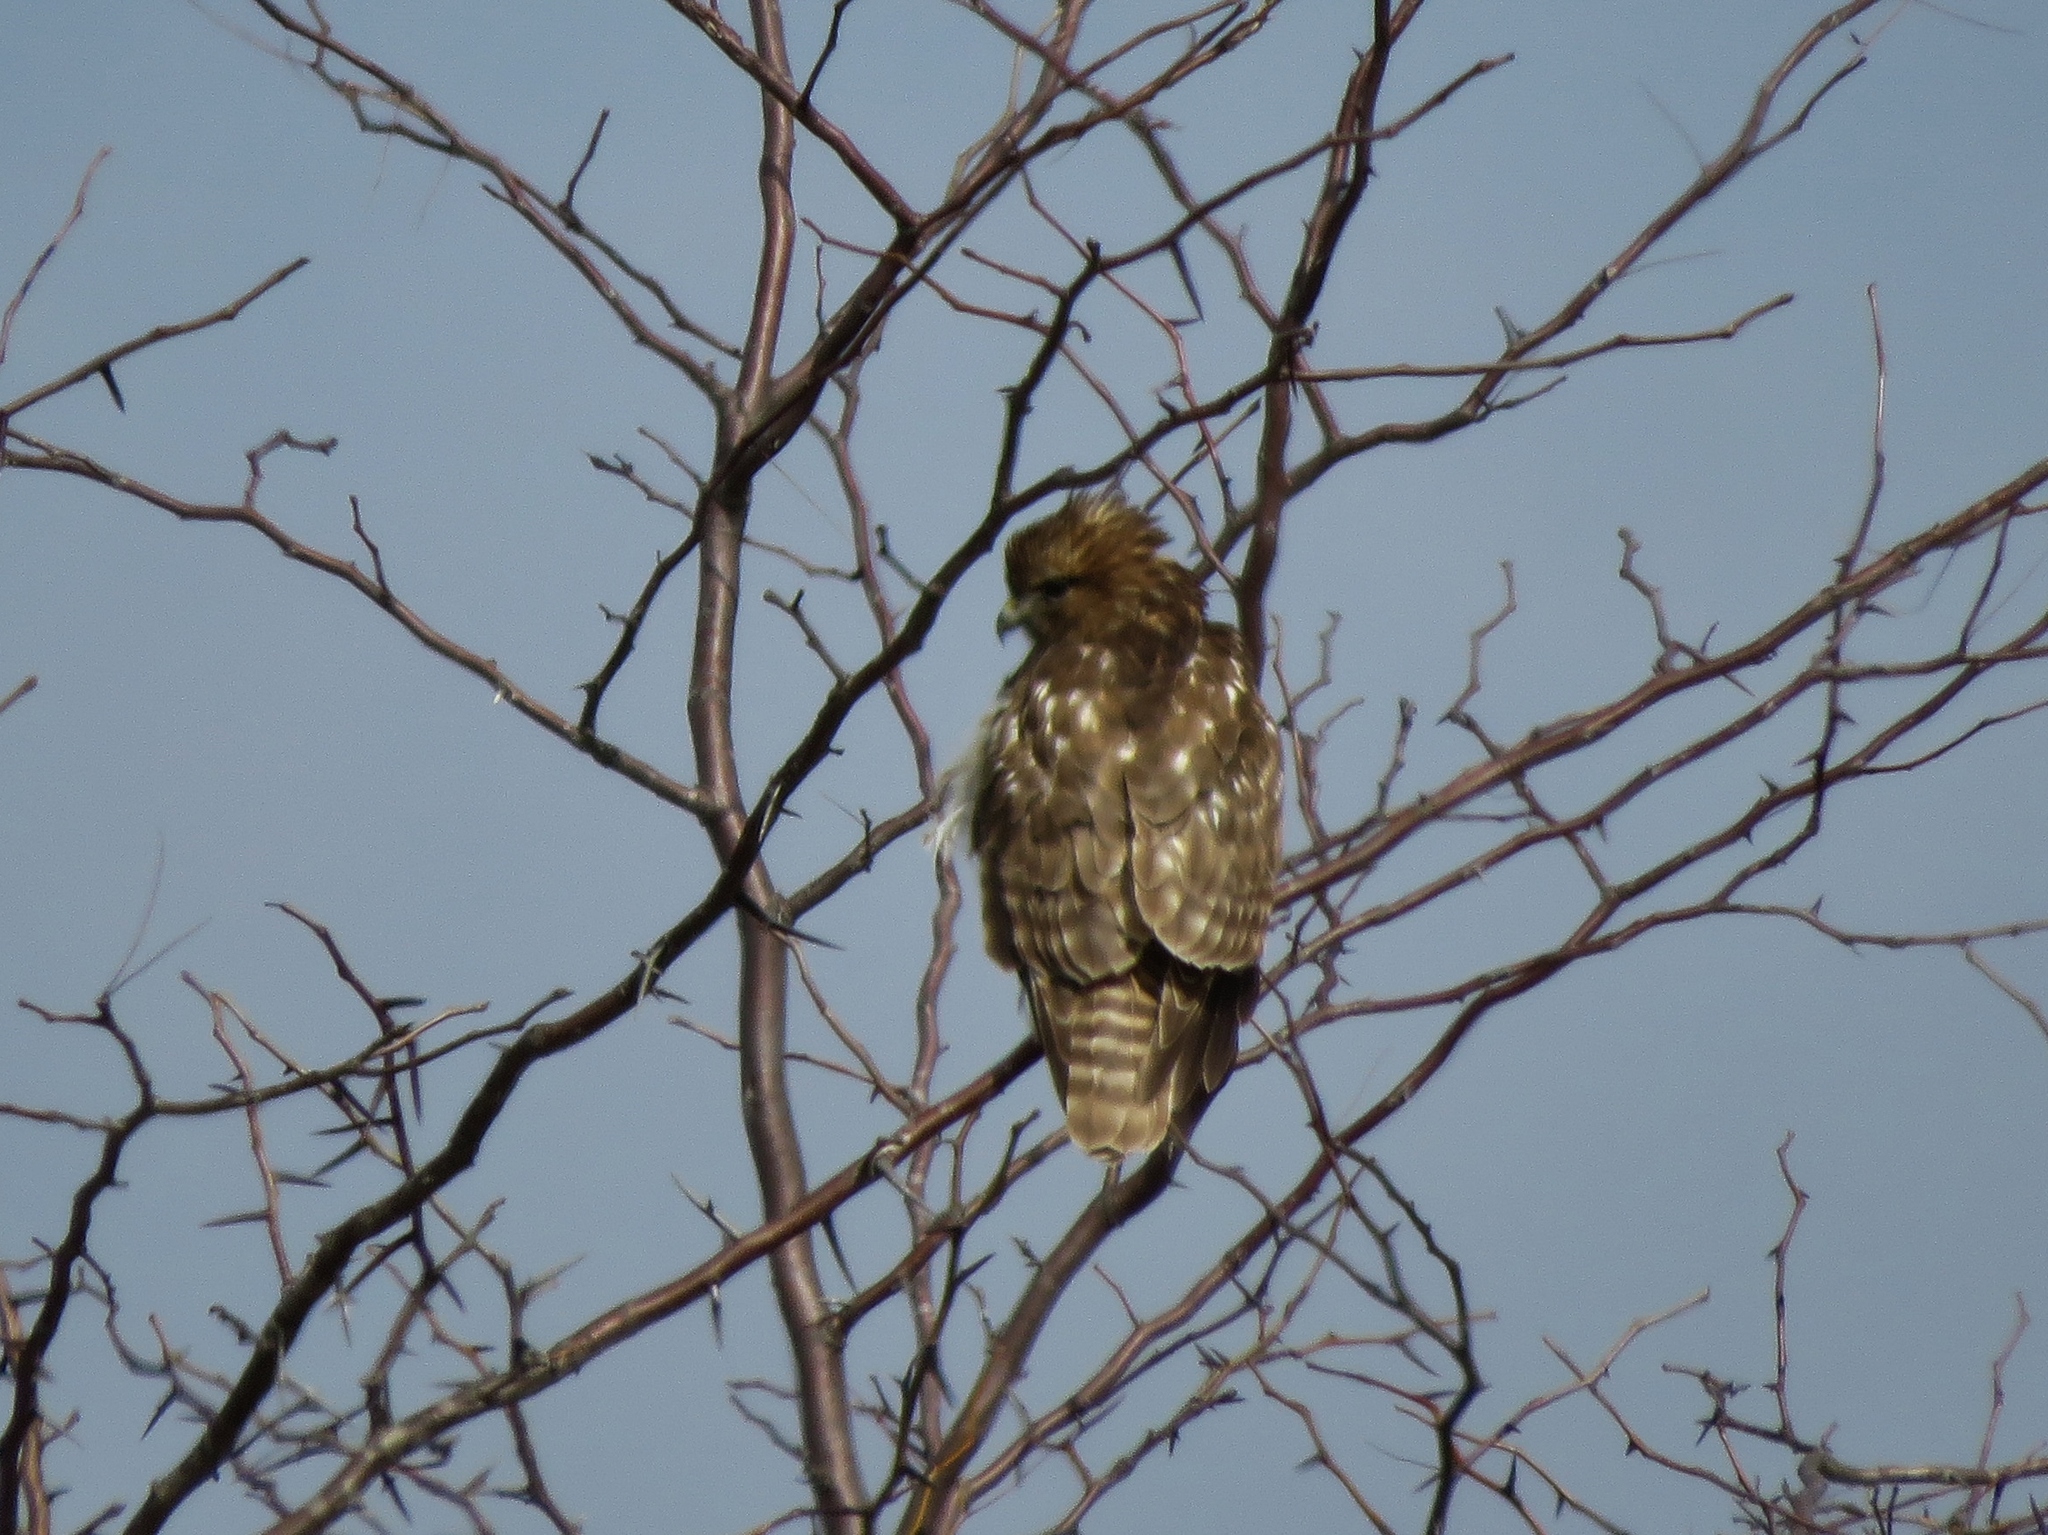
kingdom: Animalia
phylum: Chordata
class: Aves
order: Accipitriformes
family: Accipitridae
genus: Buteo
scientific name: Buteo lineatus
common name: Red-shouldered hawk
